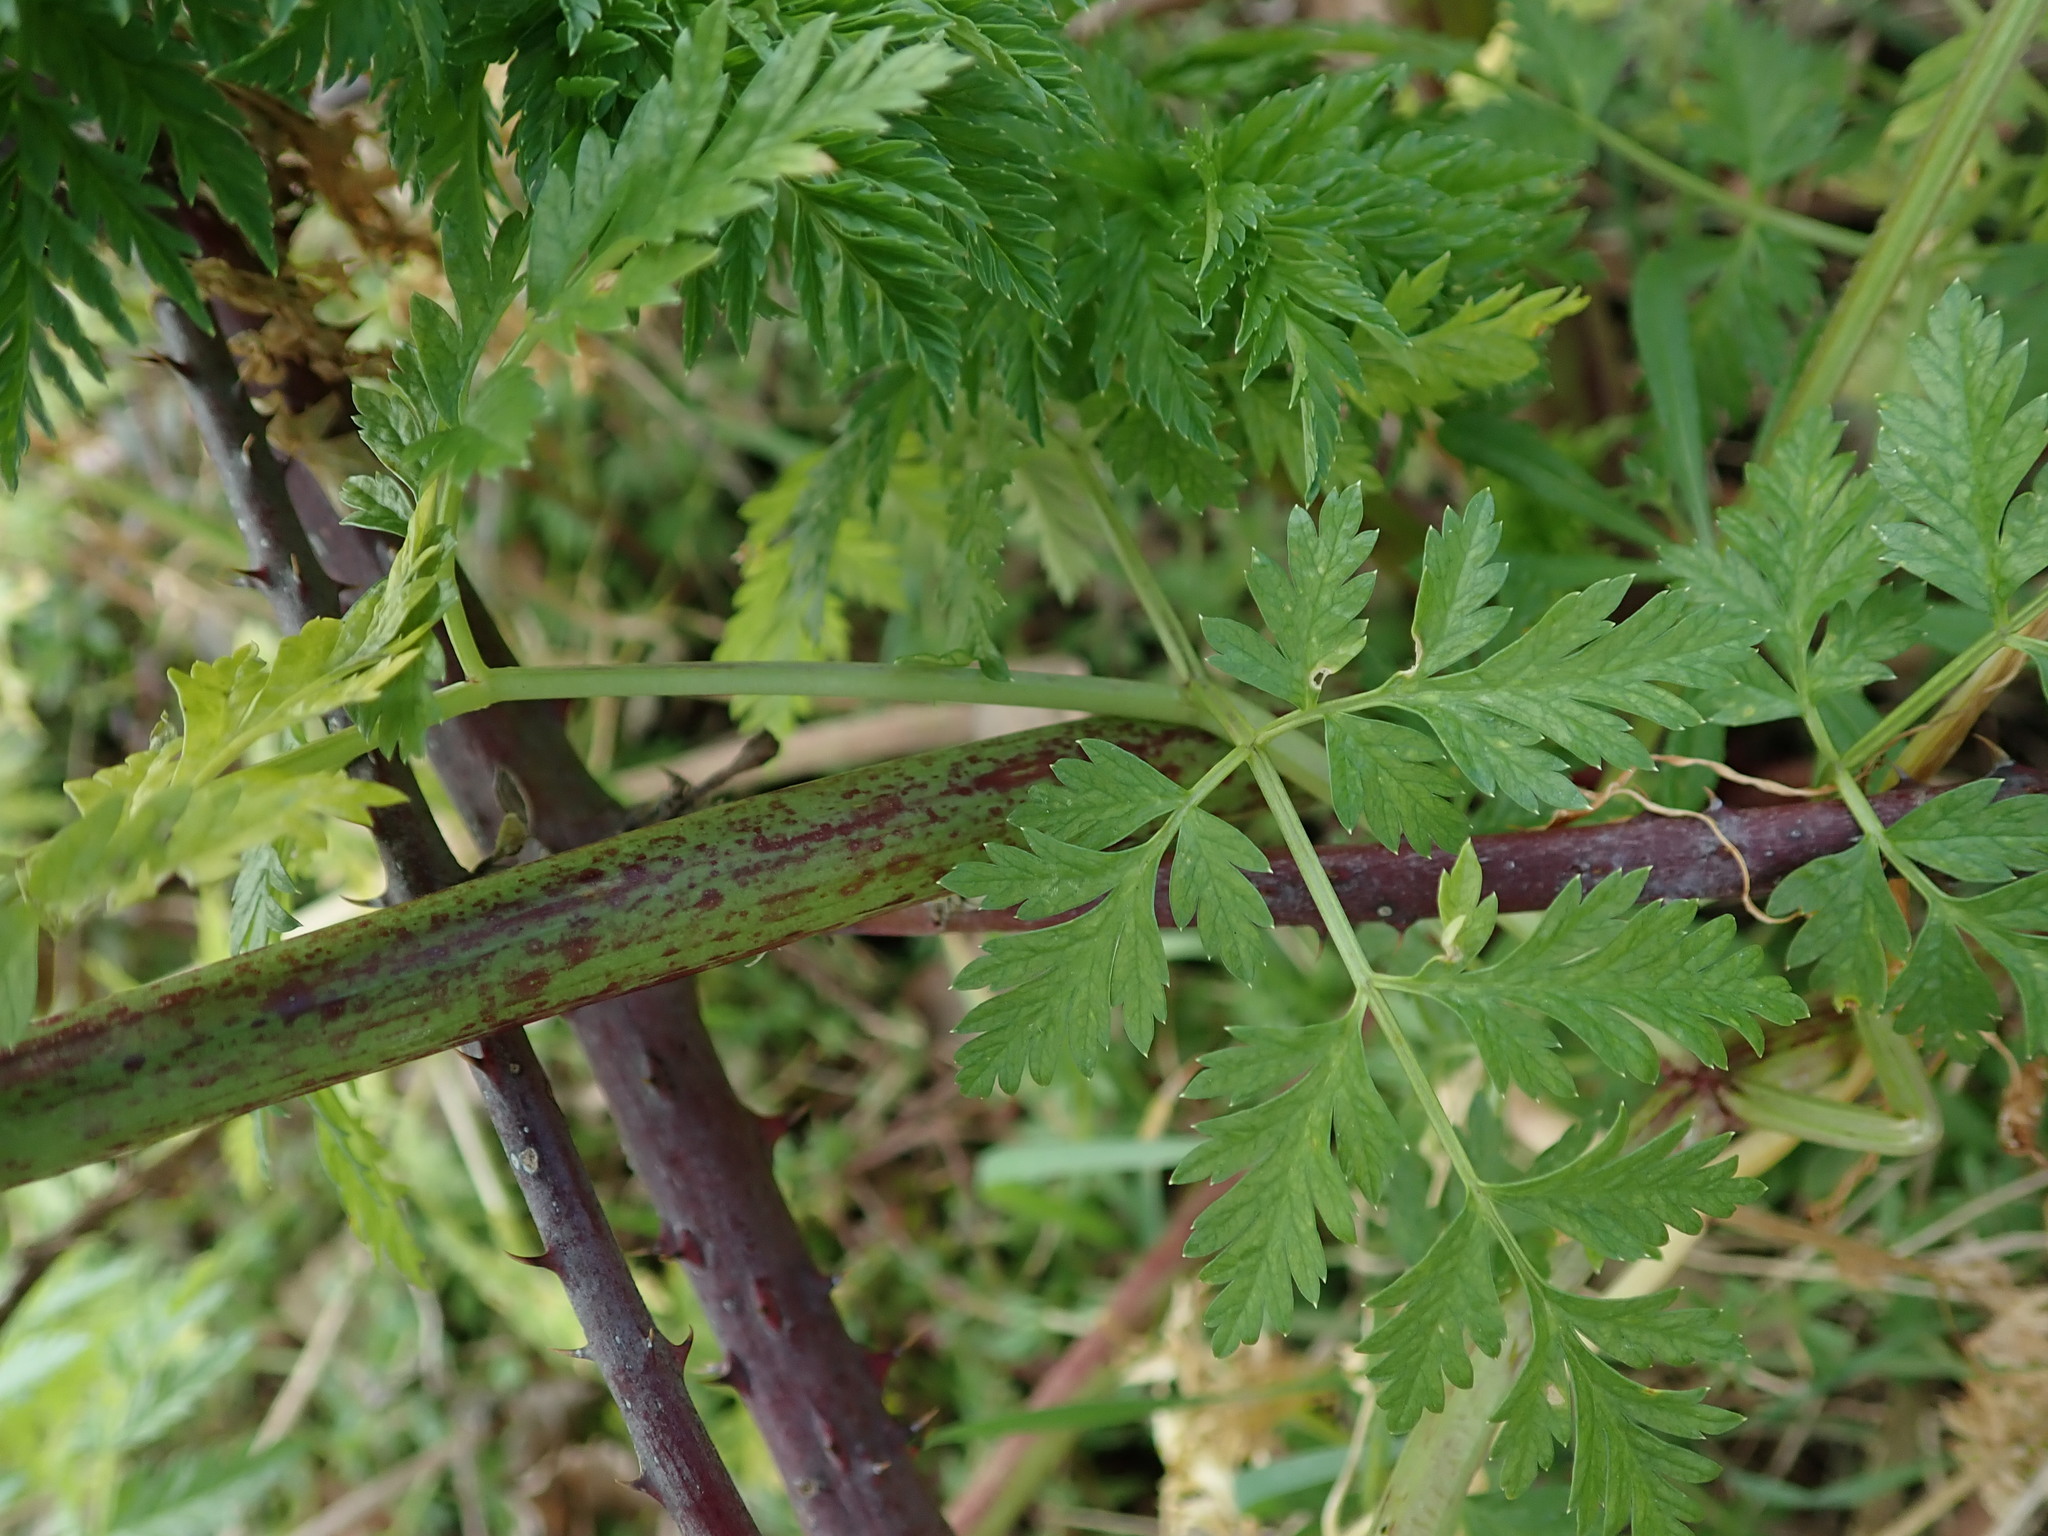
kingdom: Plantae
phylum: Tracheophyta
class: Magnoliopsida
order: Apiales
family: Apiaceae
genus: Conium
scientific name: Conium maculatum
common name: Hemlock
